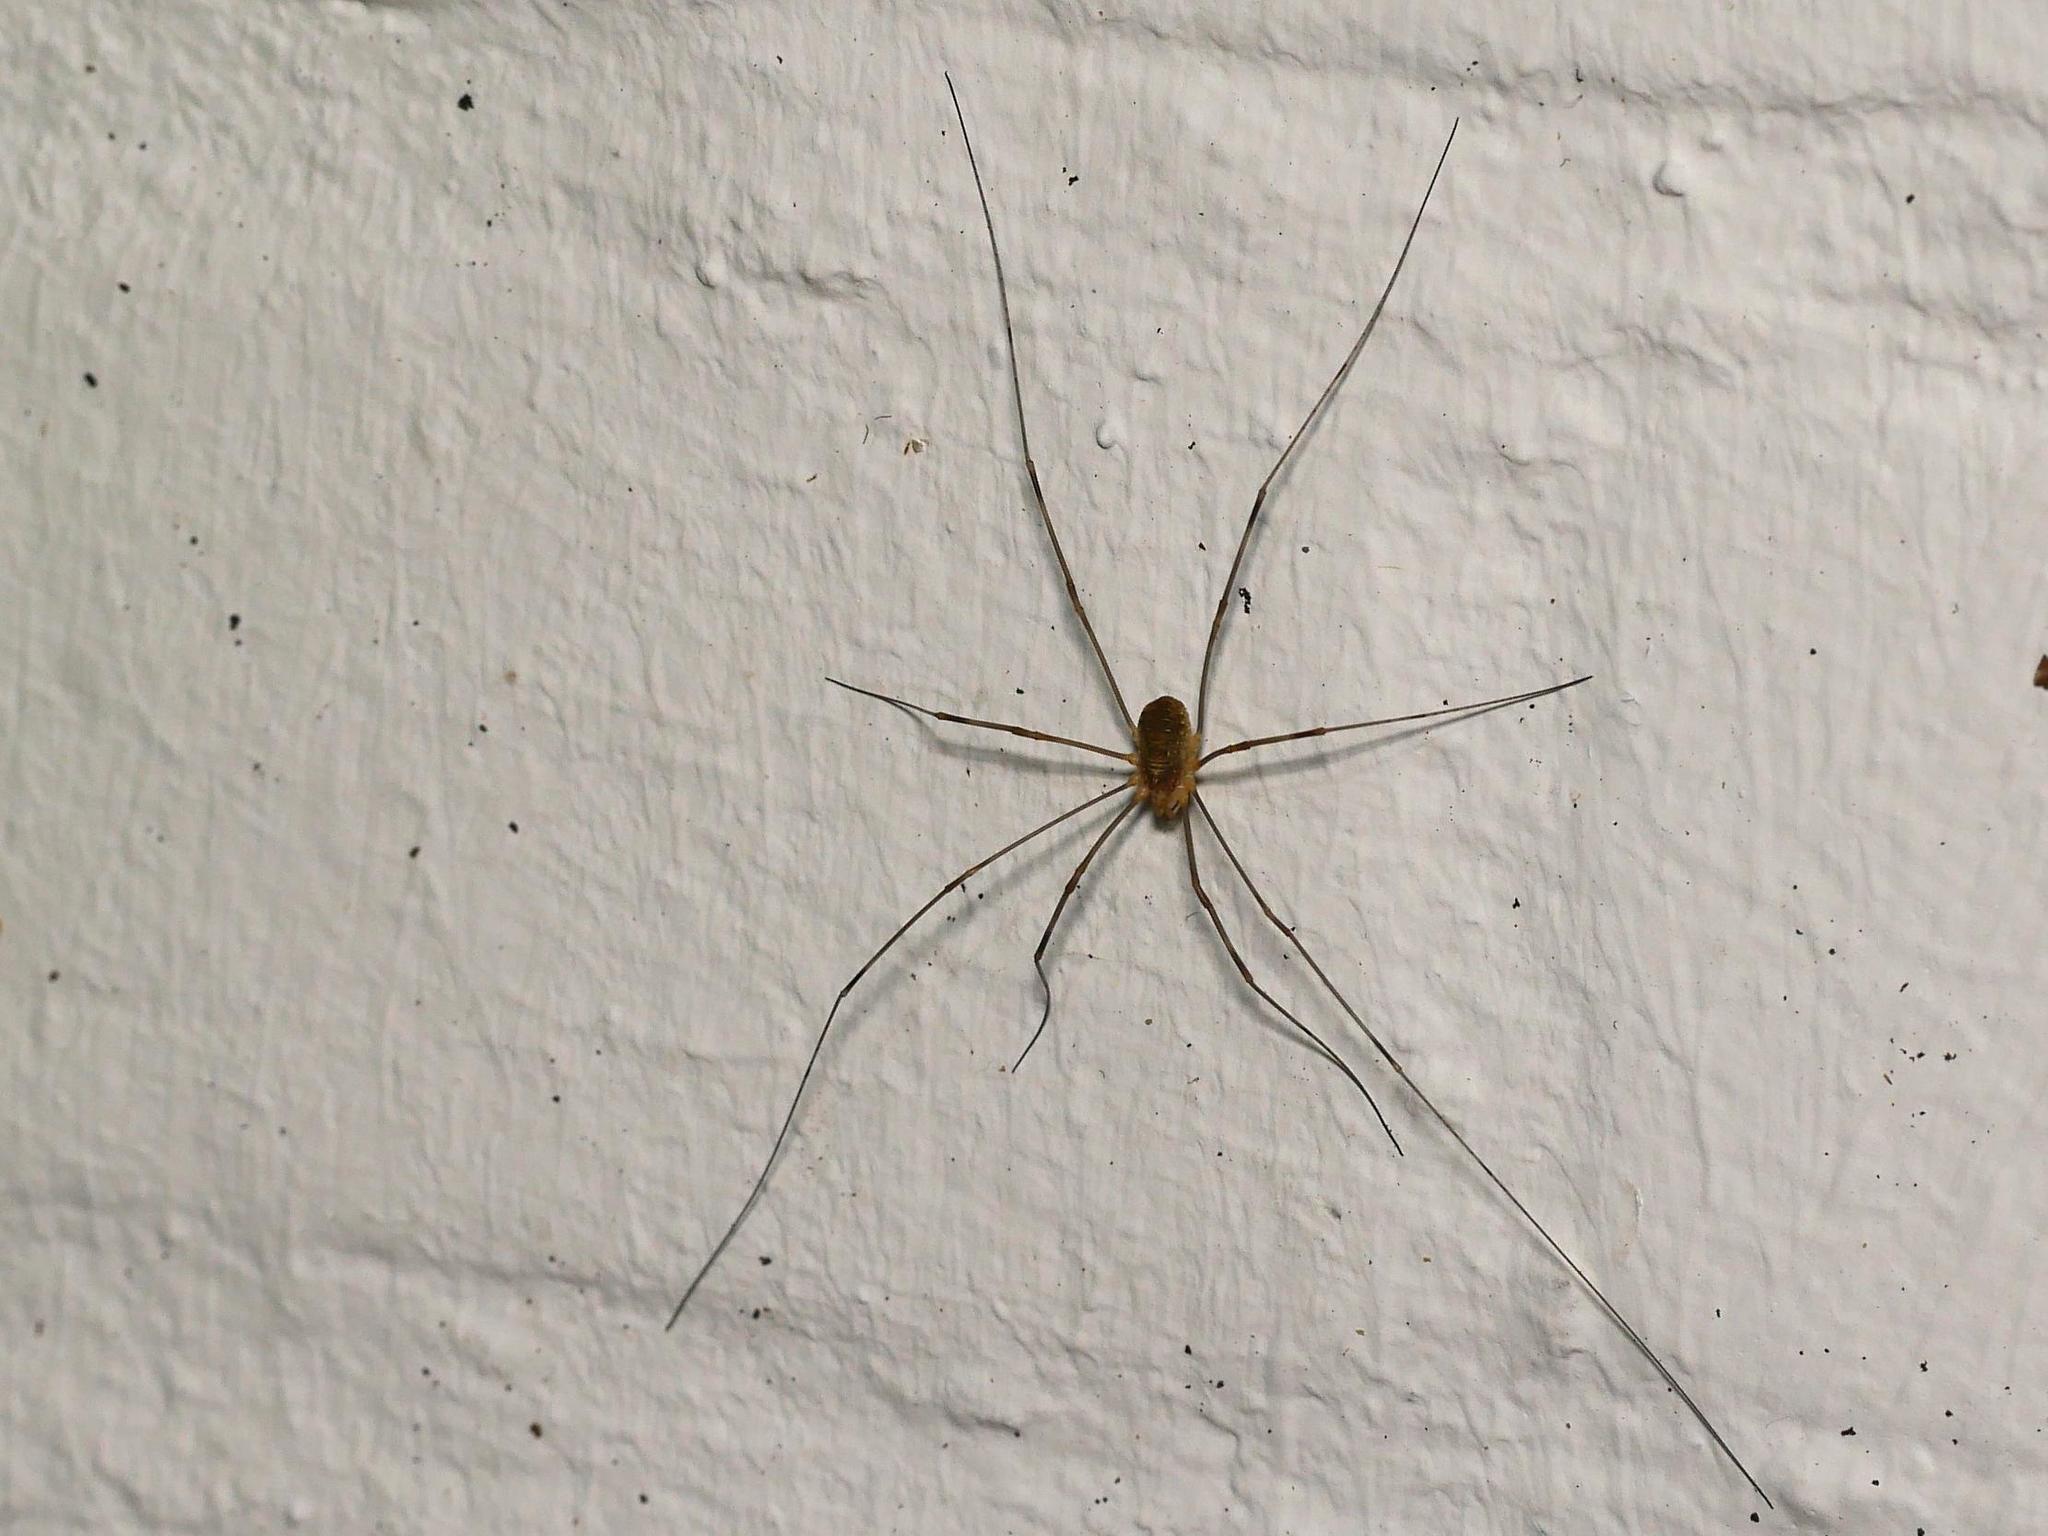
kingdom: Animalia
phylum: Arthropoda
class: Arachnida
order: Opiliones
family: Phalangiidae
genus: Opilio
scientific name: Opilio canestrinii
